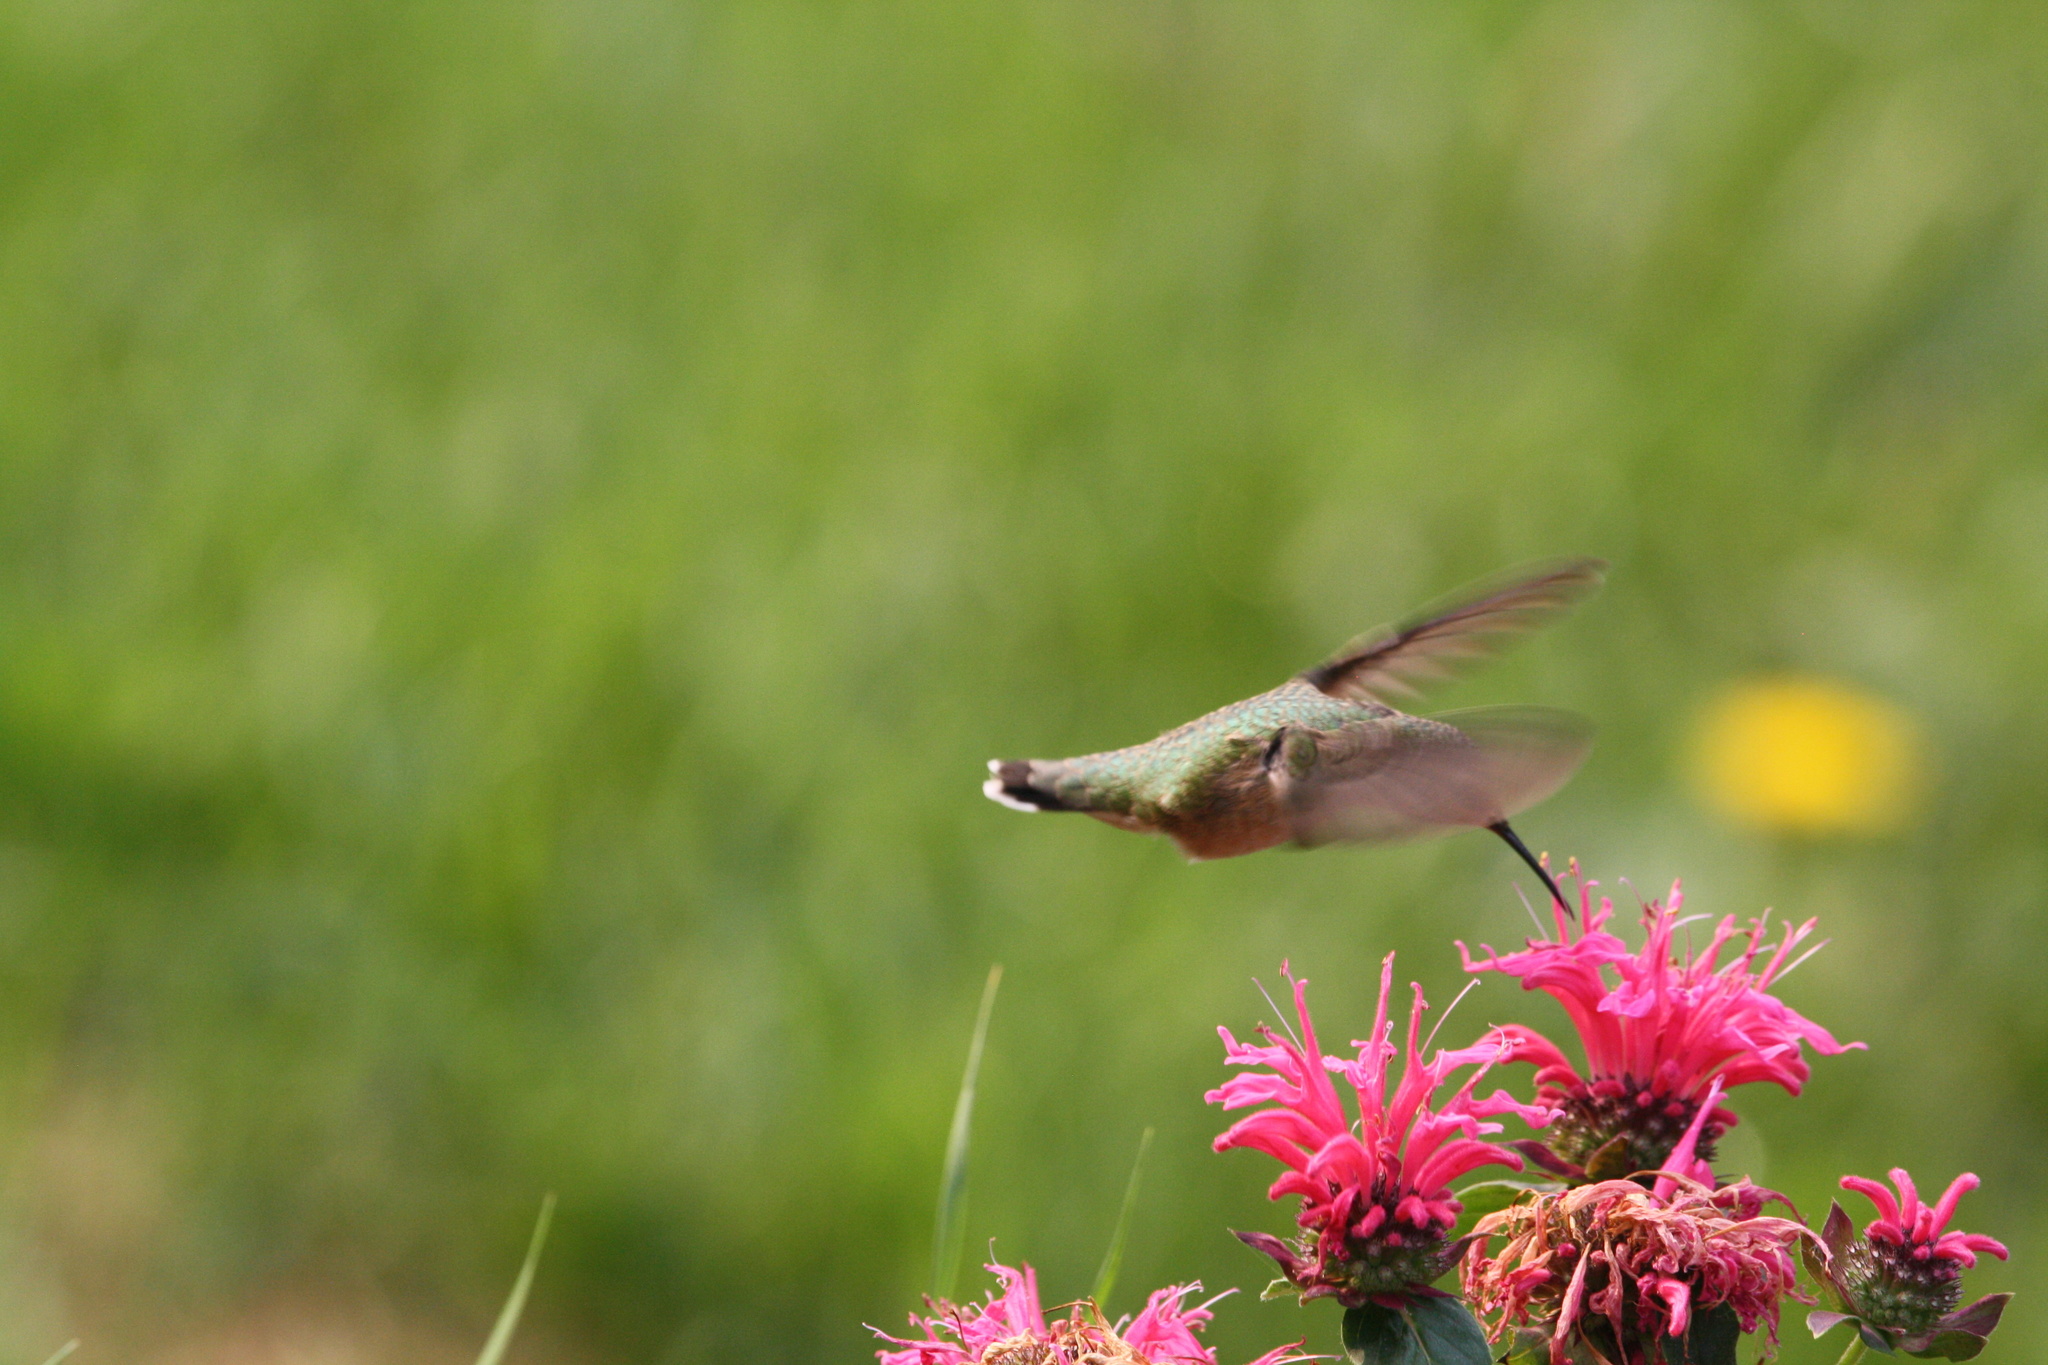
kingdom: Animalia
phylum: Chordata
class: Aves
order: Apodiformes
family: Trochilidae
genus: Selasphorus
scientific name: Selasphorus calliope
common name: Calliope hummingbird
